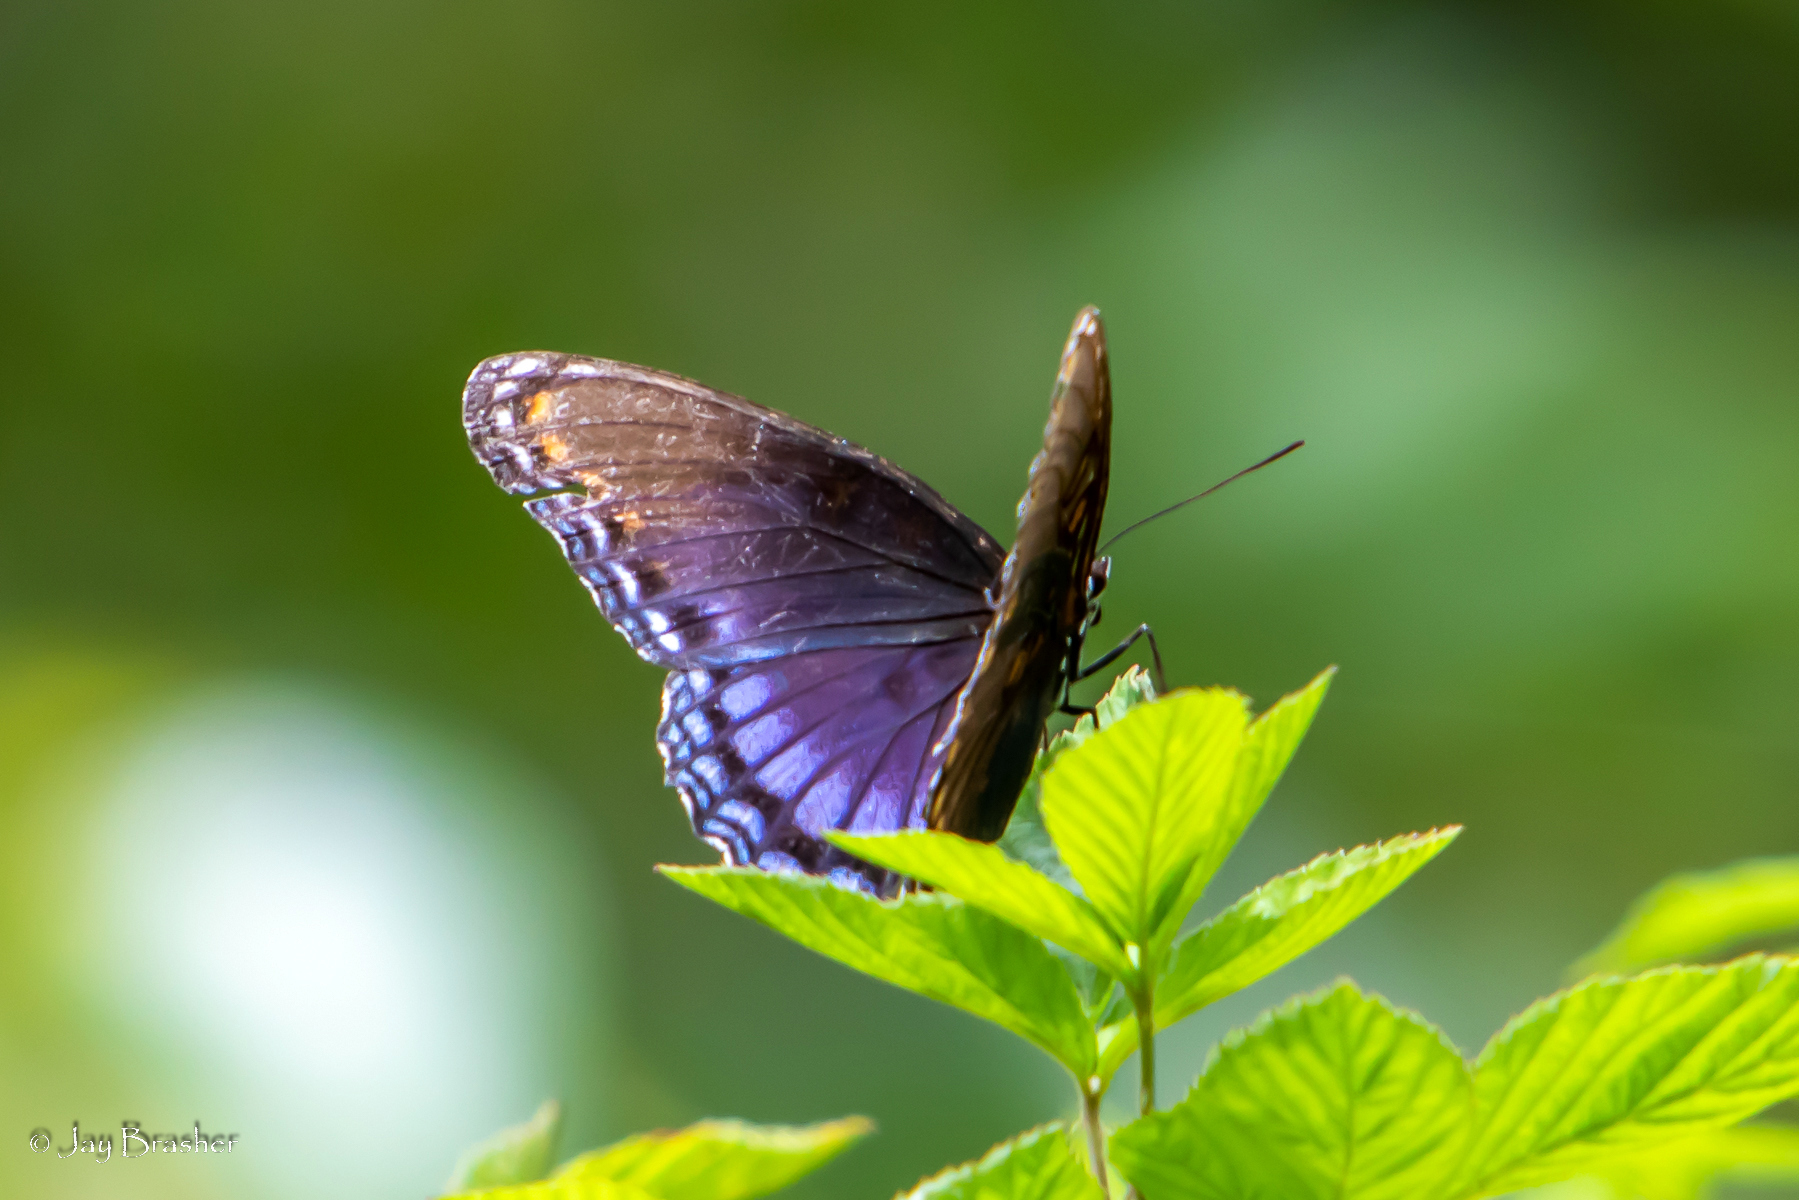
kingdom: Animalia
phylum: Arthropoda
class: Insecta
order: Lepidoptera
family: Nymphalidae
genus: Limenitis
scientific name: Limenitis astyanax
